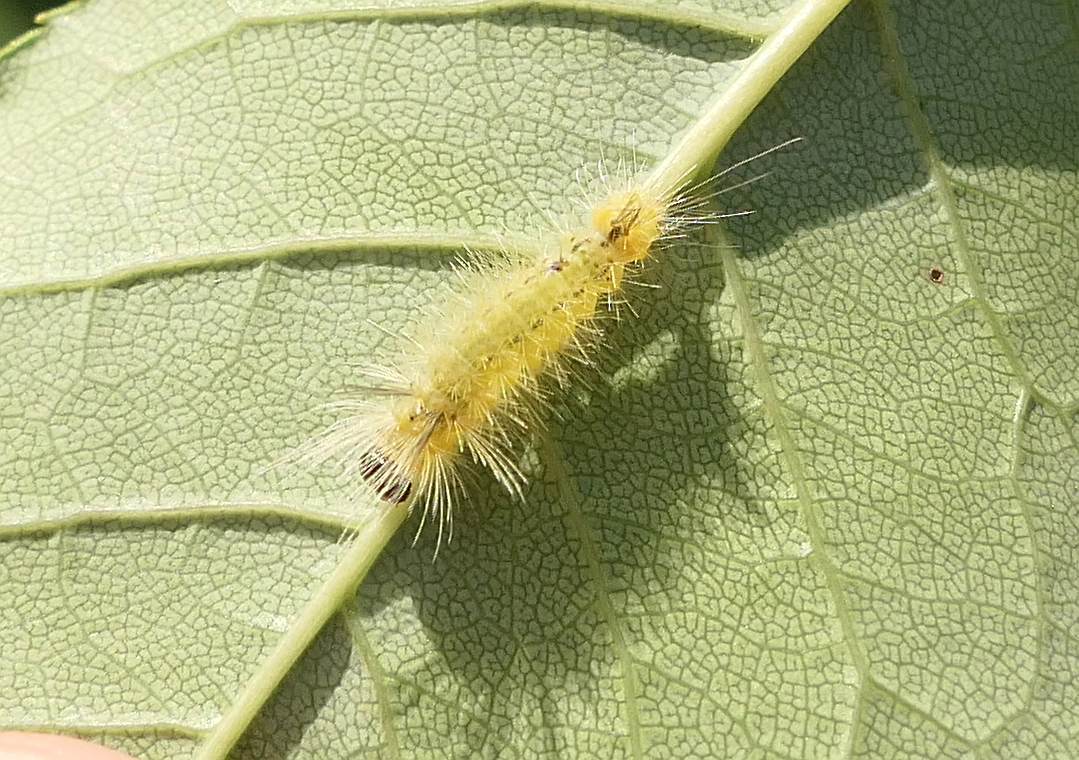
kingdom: Animalia
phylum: Arthropoda
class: Insecta
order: Lepidoptera
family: Erebidae
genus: Halysidota
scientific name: Halysidota tessellaris
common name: Banded tussock moth
